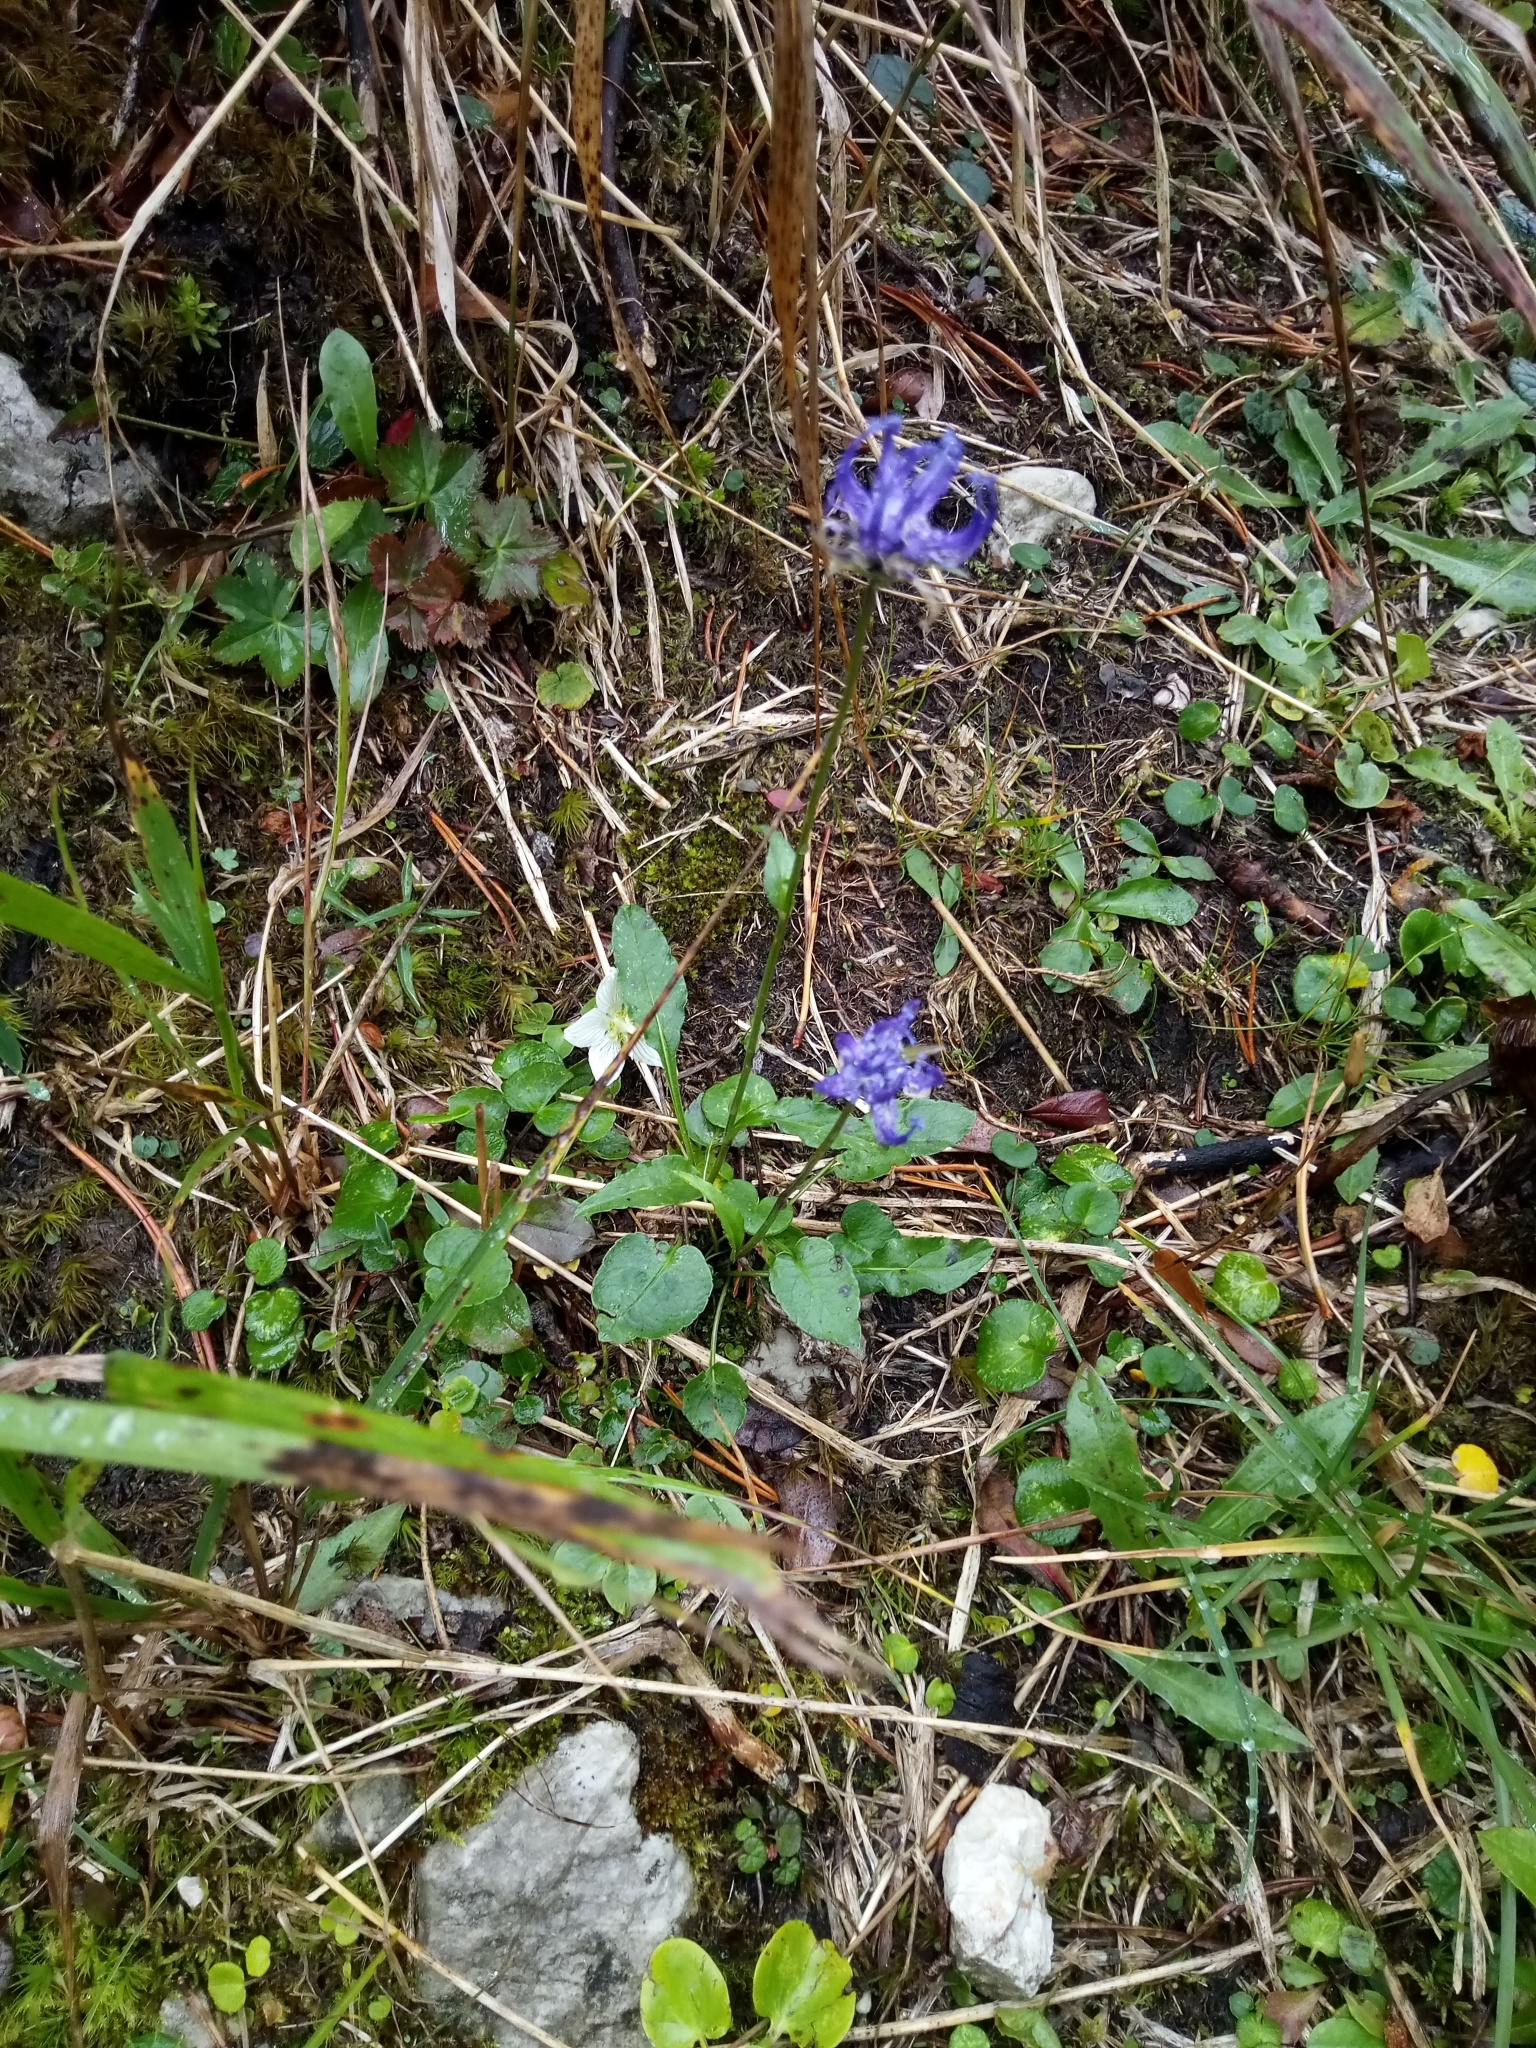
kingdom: Plantae
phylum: Tracheophyta
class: Magnoliopsida
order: Asterales
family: Campanulaceae
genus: Phyteuma
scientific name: Phyteuma orbiculare
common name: Round-headed rampion
